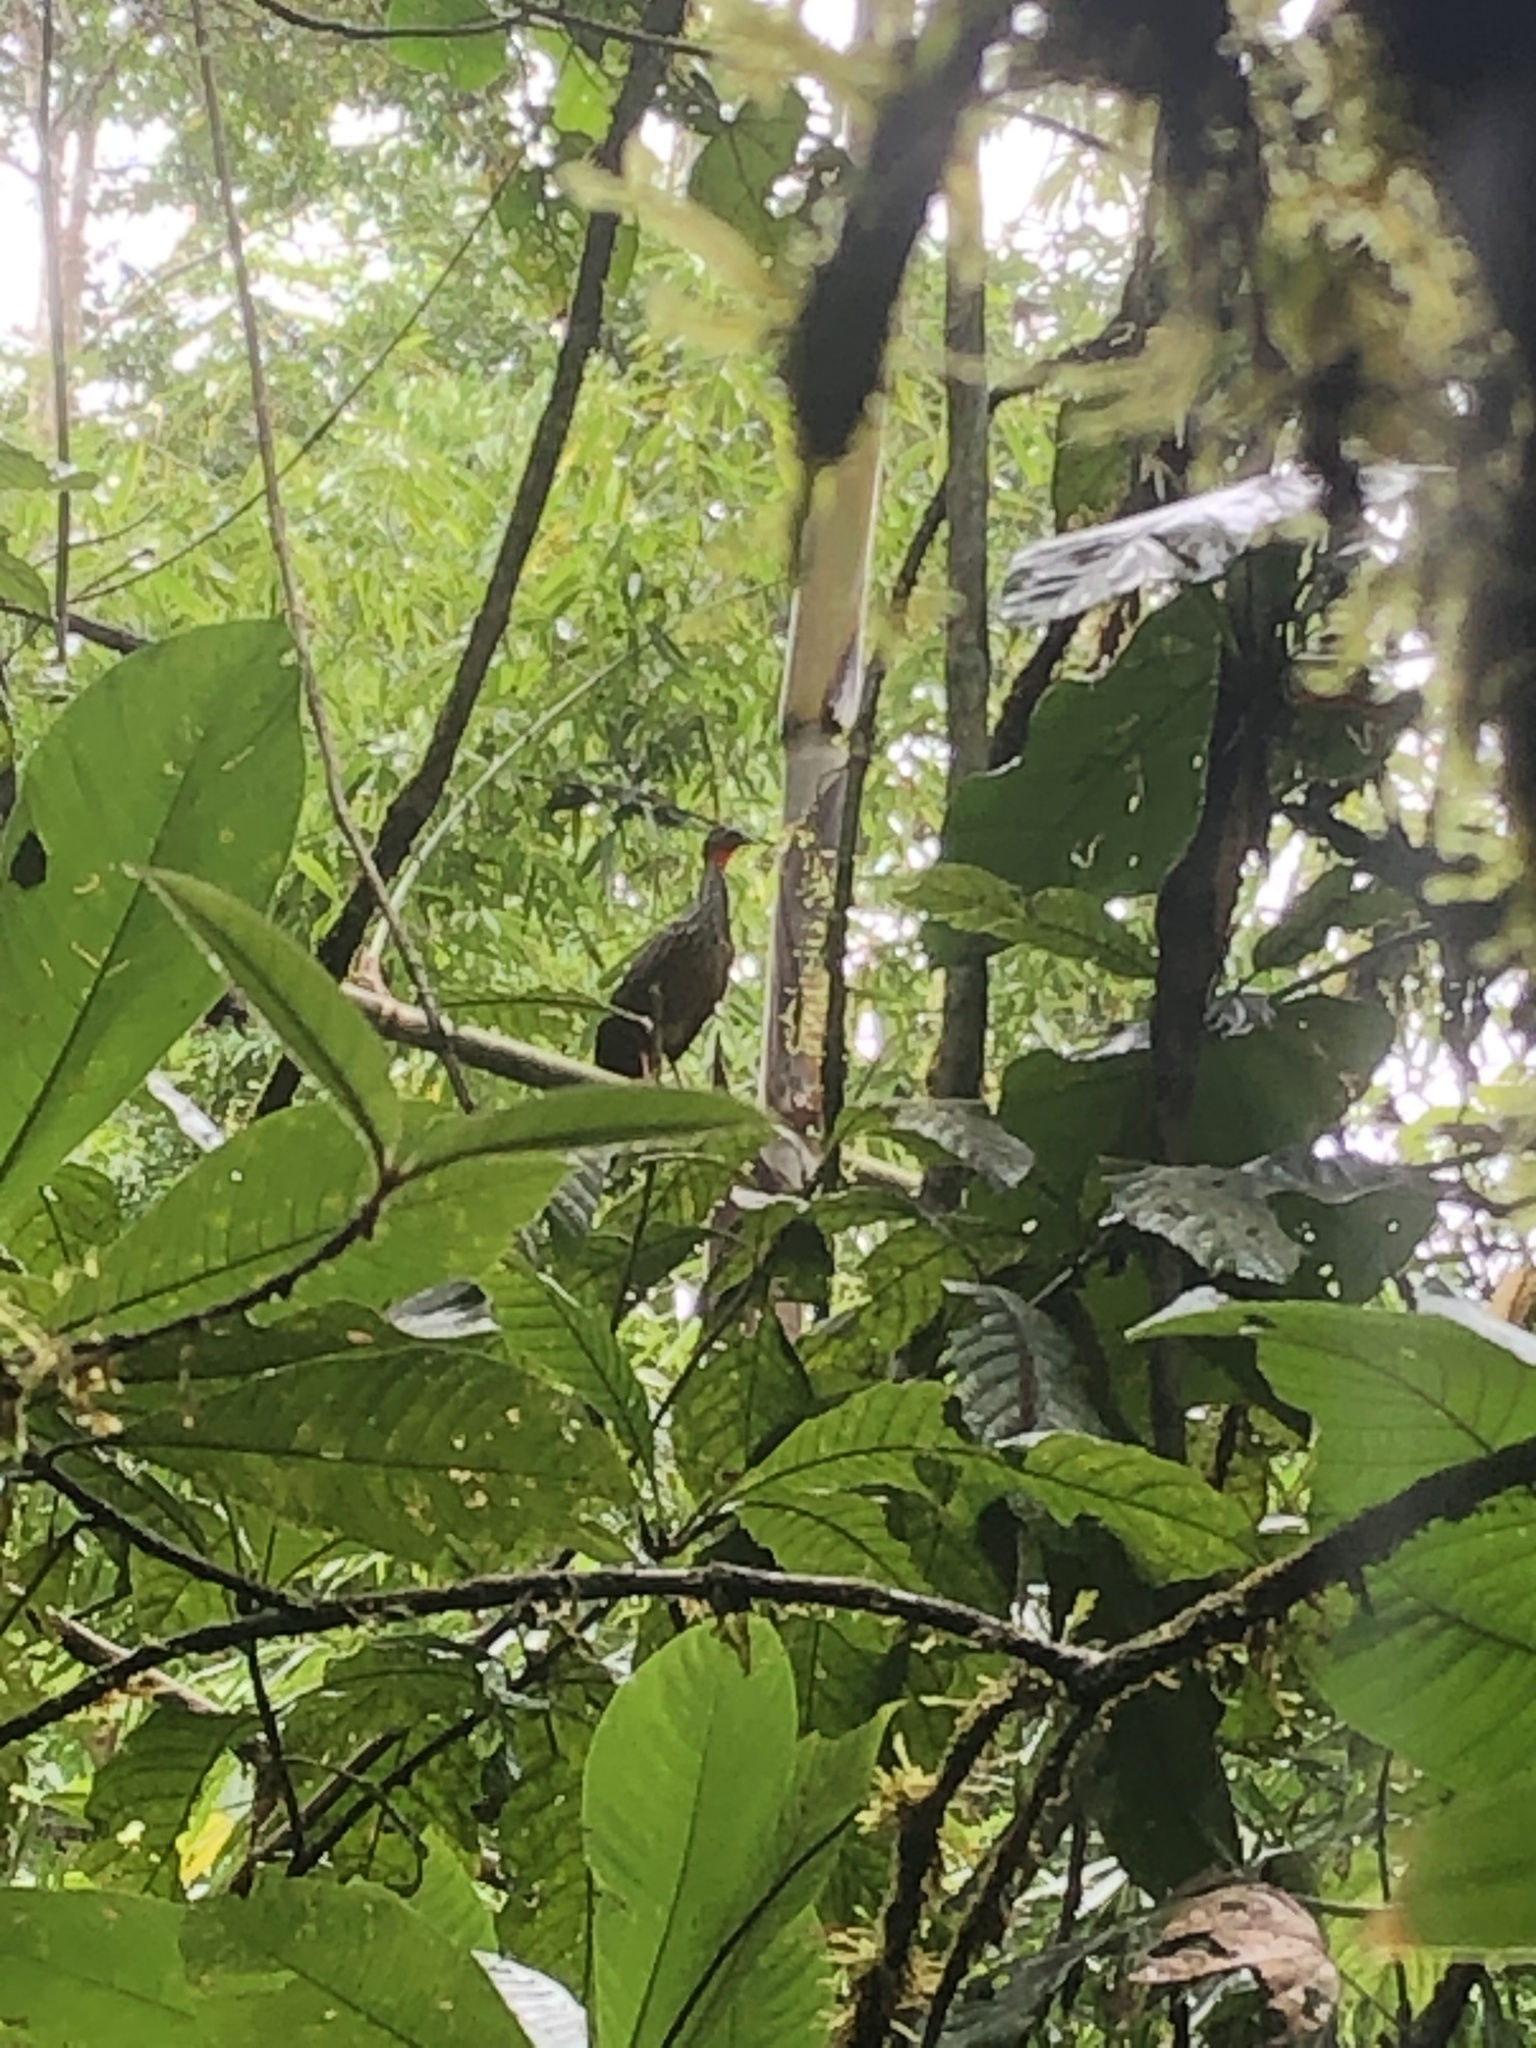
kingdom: Animalia
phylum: Chordata
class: Aves
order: Galliformes
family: Cracidae
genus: Penelope
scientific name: Penelope jacquacu
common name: Spix's guan
